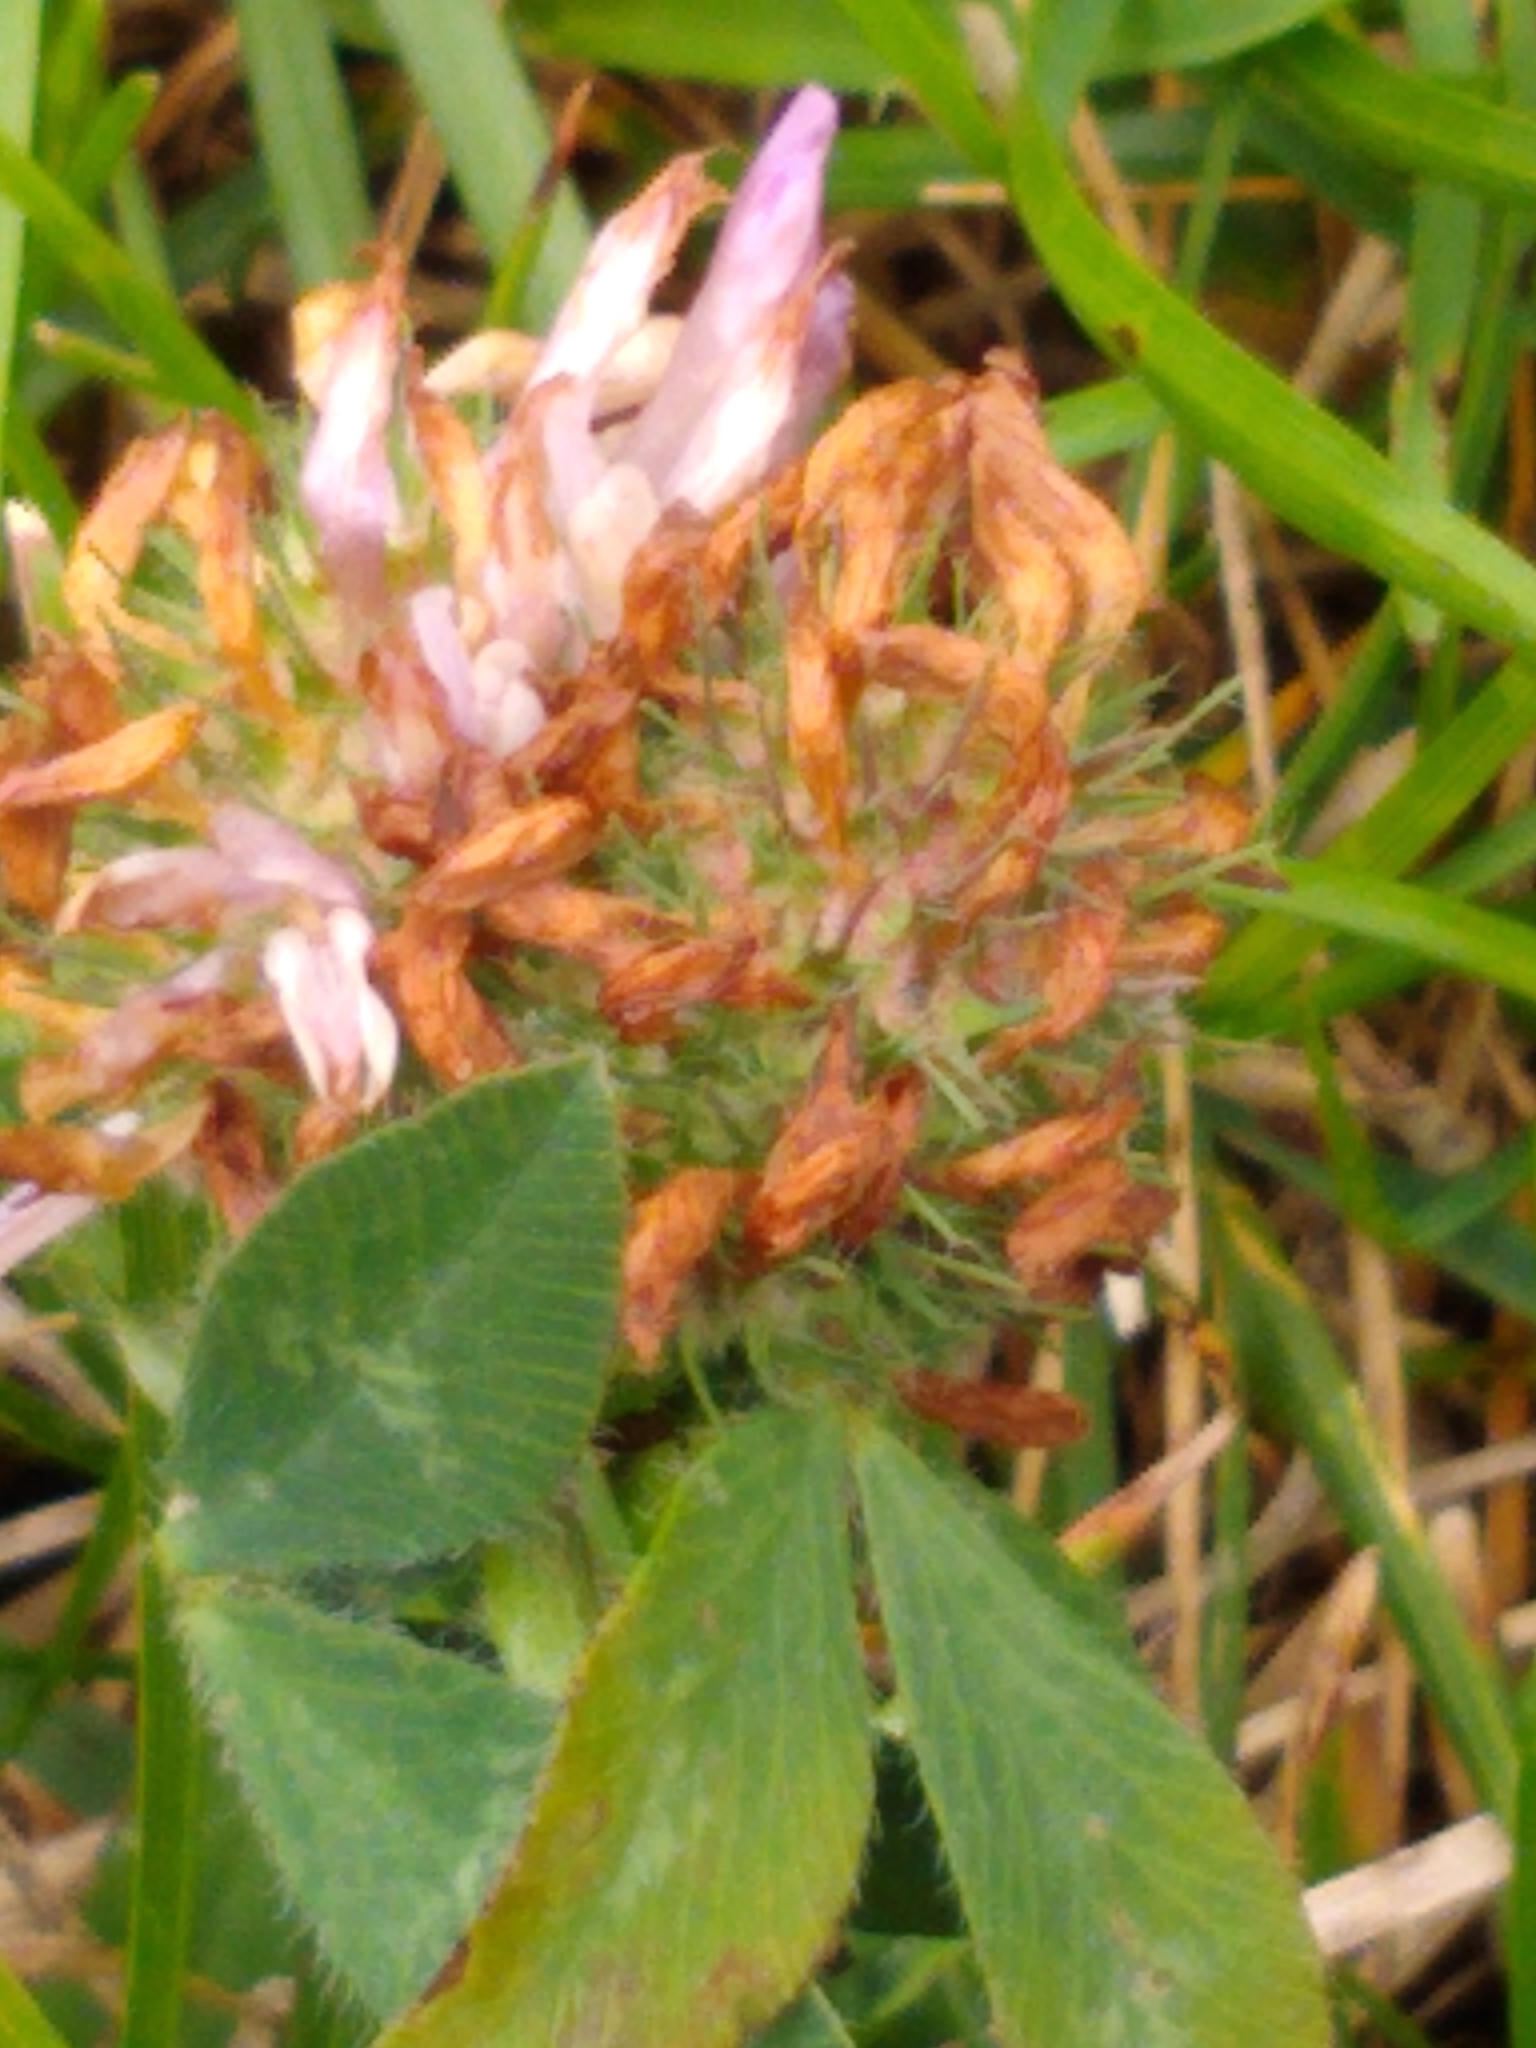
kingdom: Plantae
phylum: Tracheophyta
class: Magnoliopsida
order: Fabales
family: Fabaceae
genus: Trifolium
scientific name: Trifolium pratense
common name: Red clover
